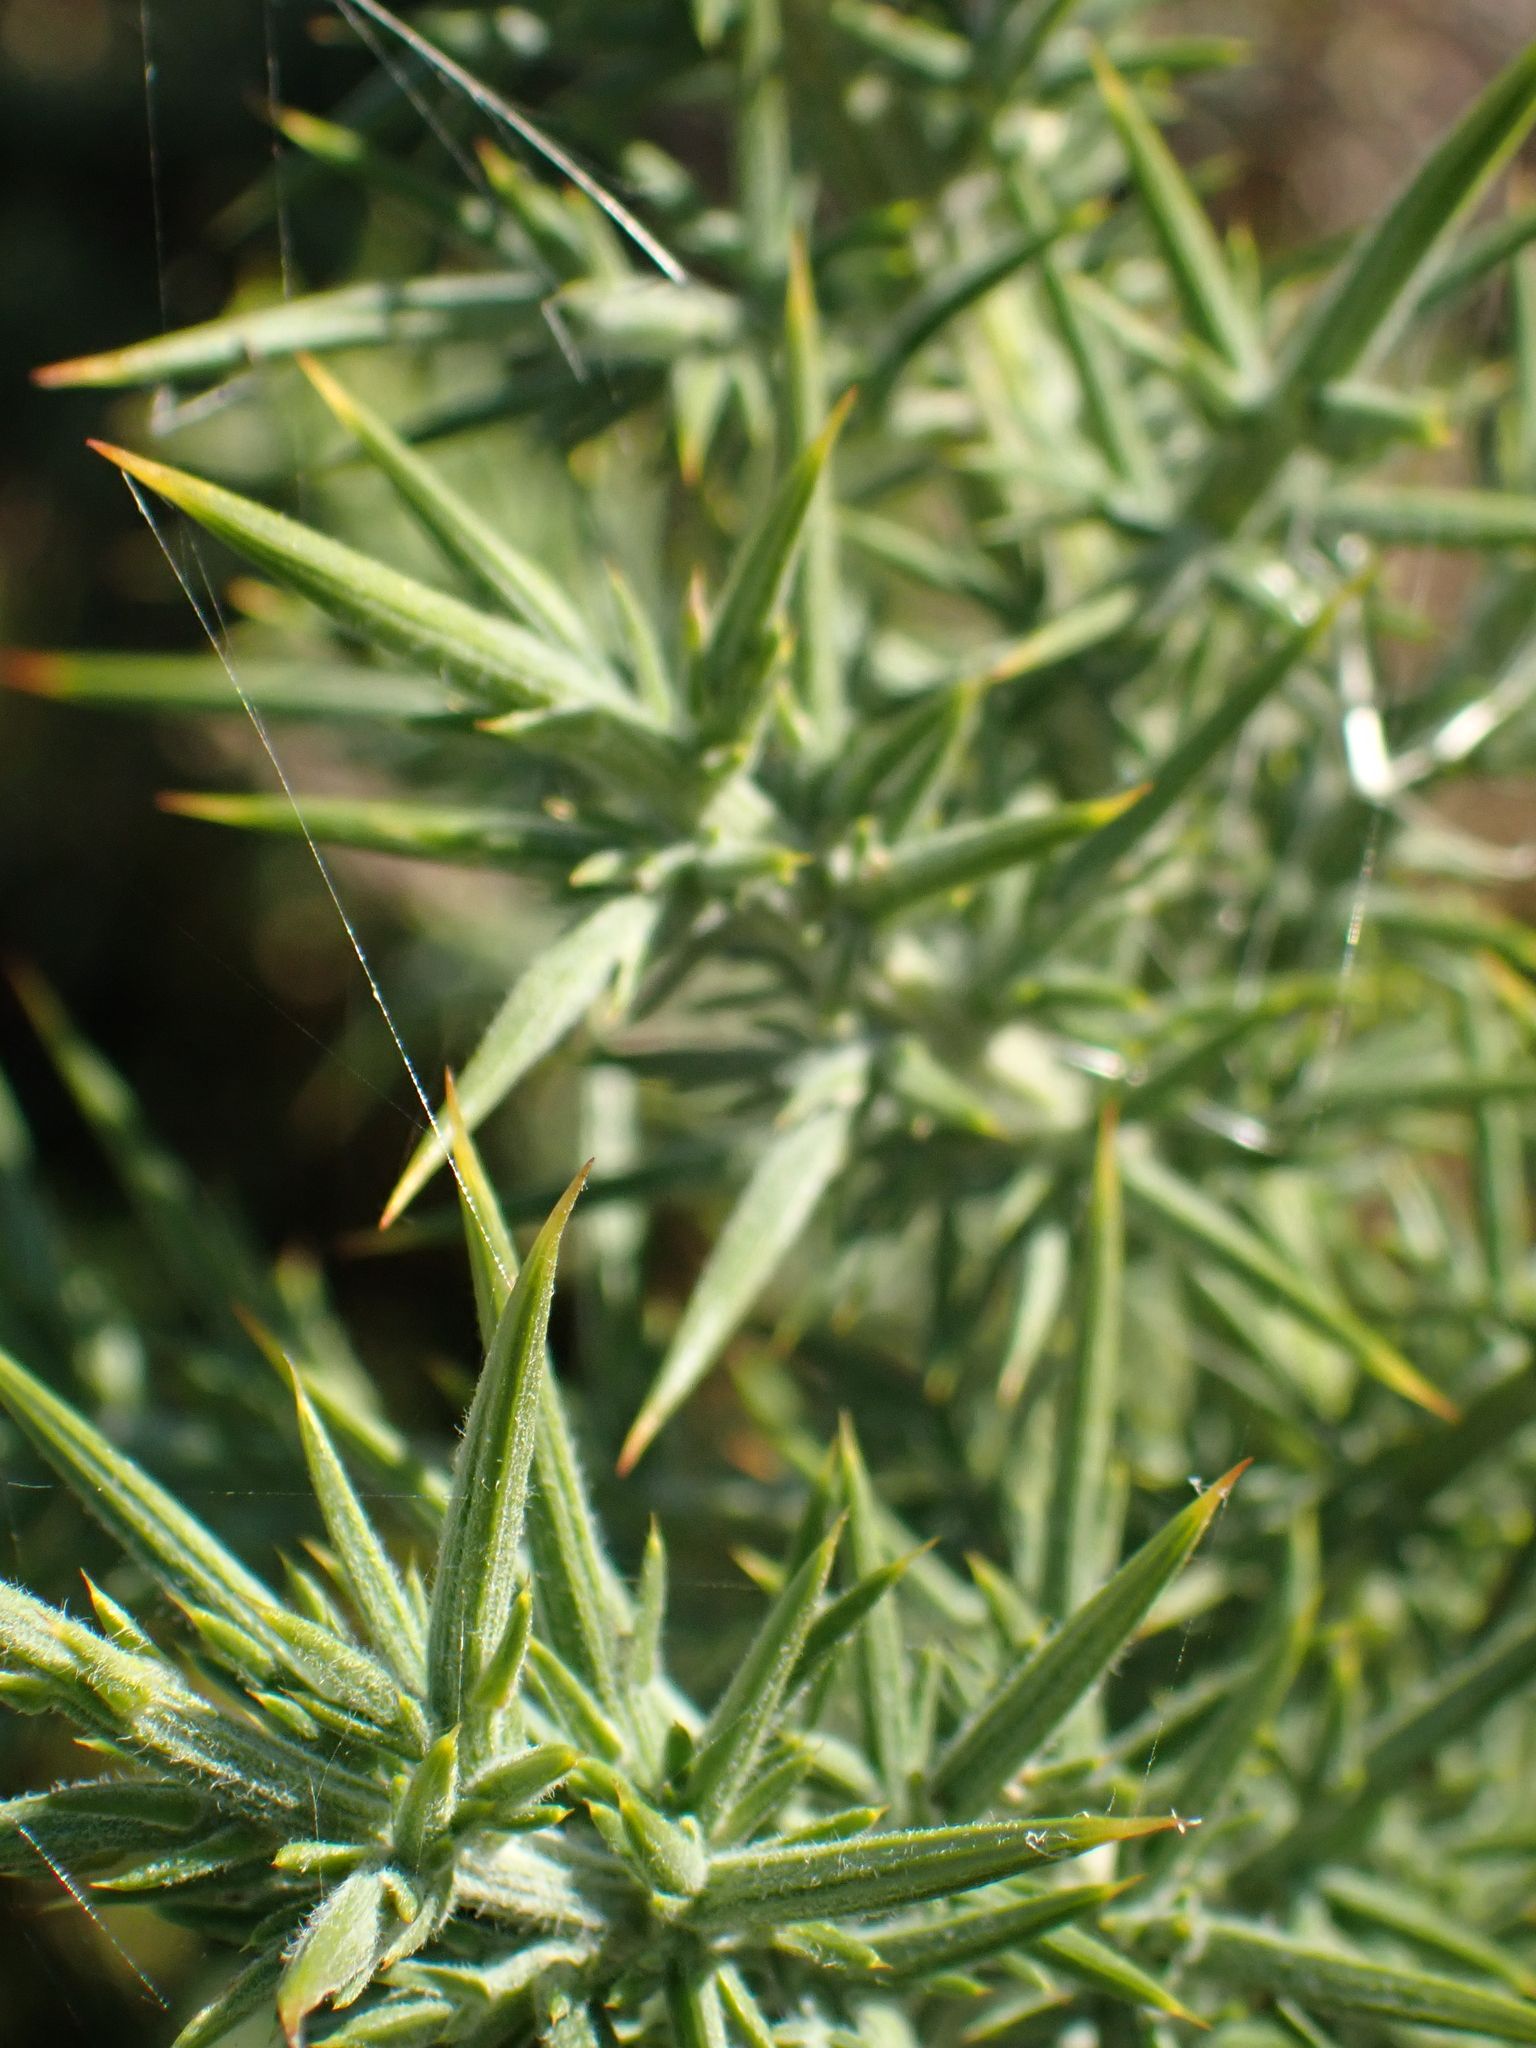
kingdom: Plantae
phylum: Tracheophyta
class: Magnoliopsida
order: Fabales
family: Fabaceae
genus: Ulex
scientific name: Ulex europaeus
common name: Common gorse
